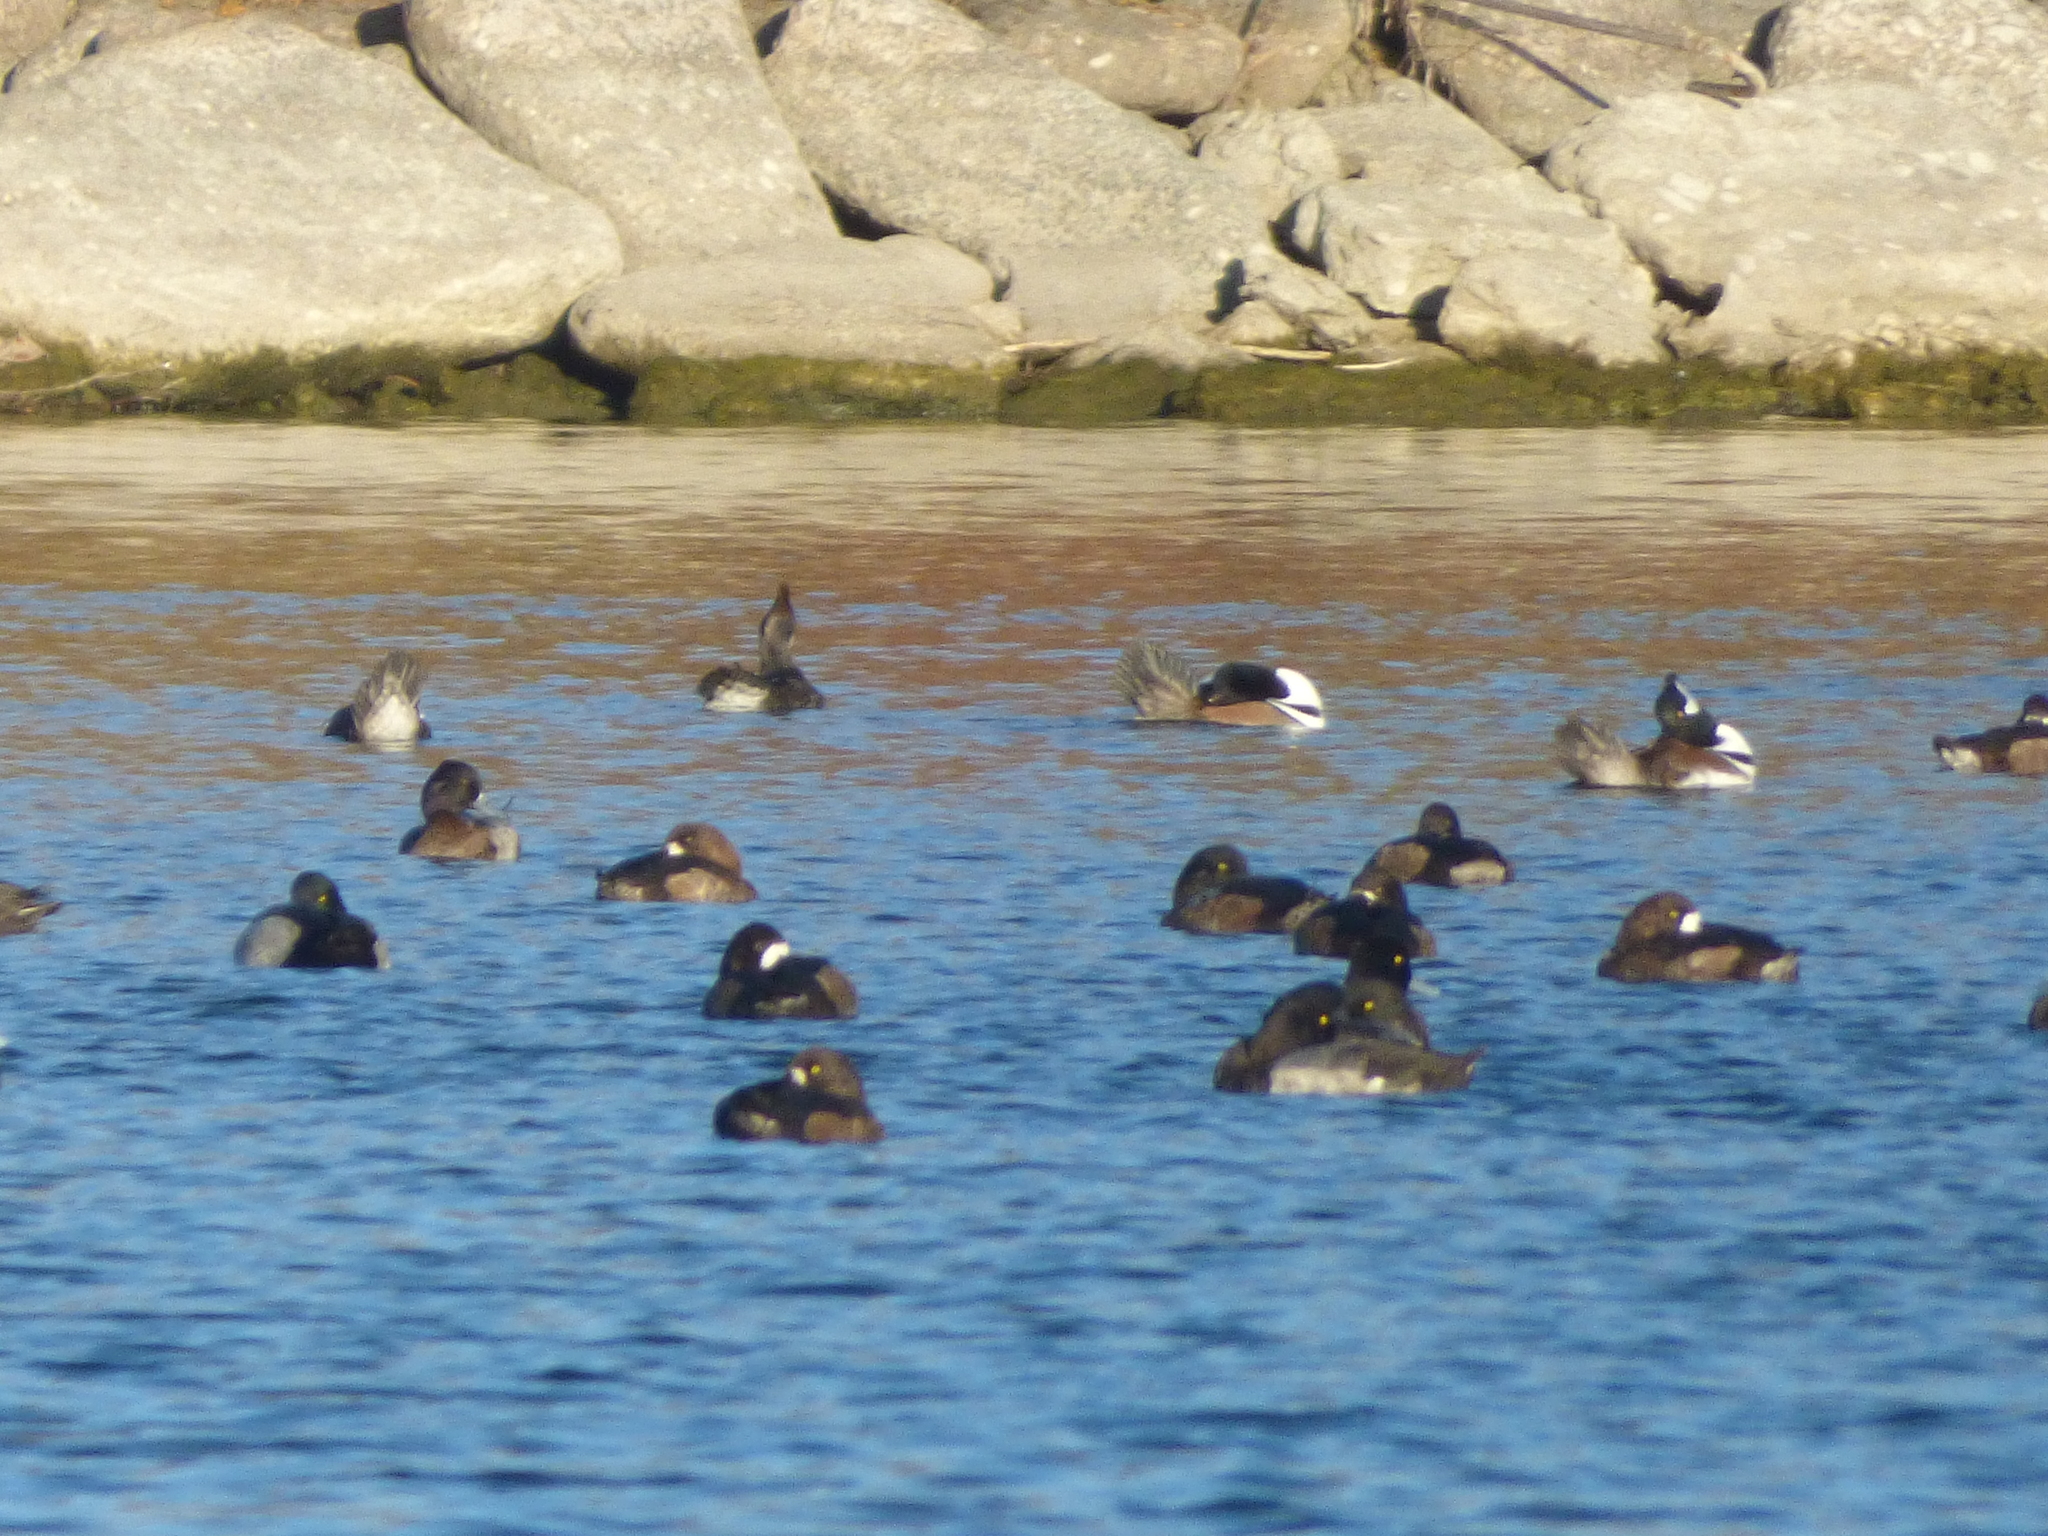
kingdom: Animalia
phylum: Chordata
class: Aves
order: Anseriformes
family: Anatidae
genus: Lophodytes
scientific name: Lophodytes cucullatus
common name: Hooded merganser
